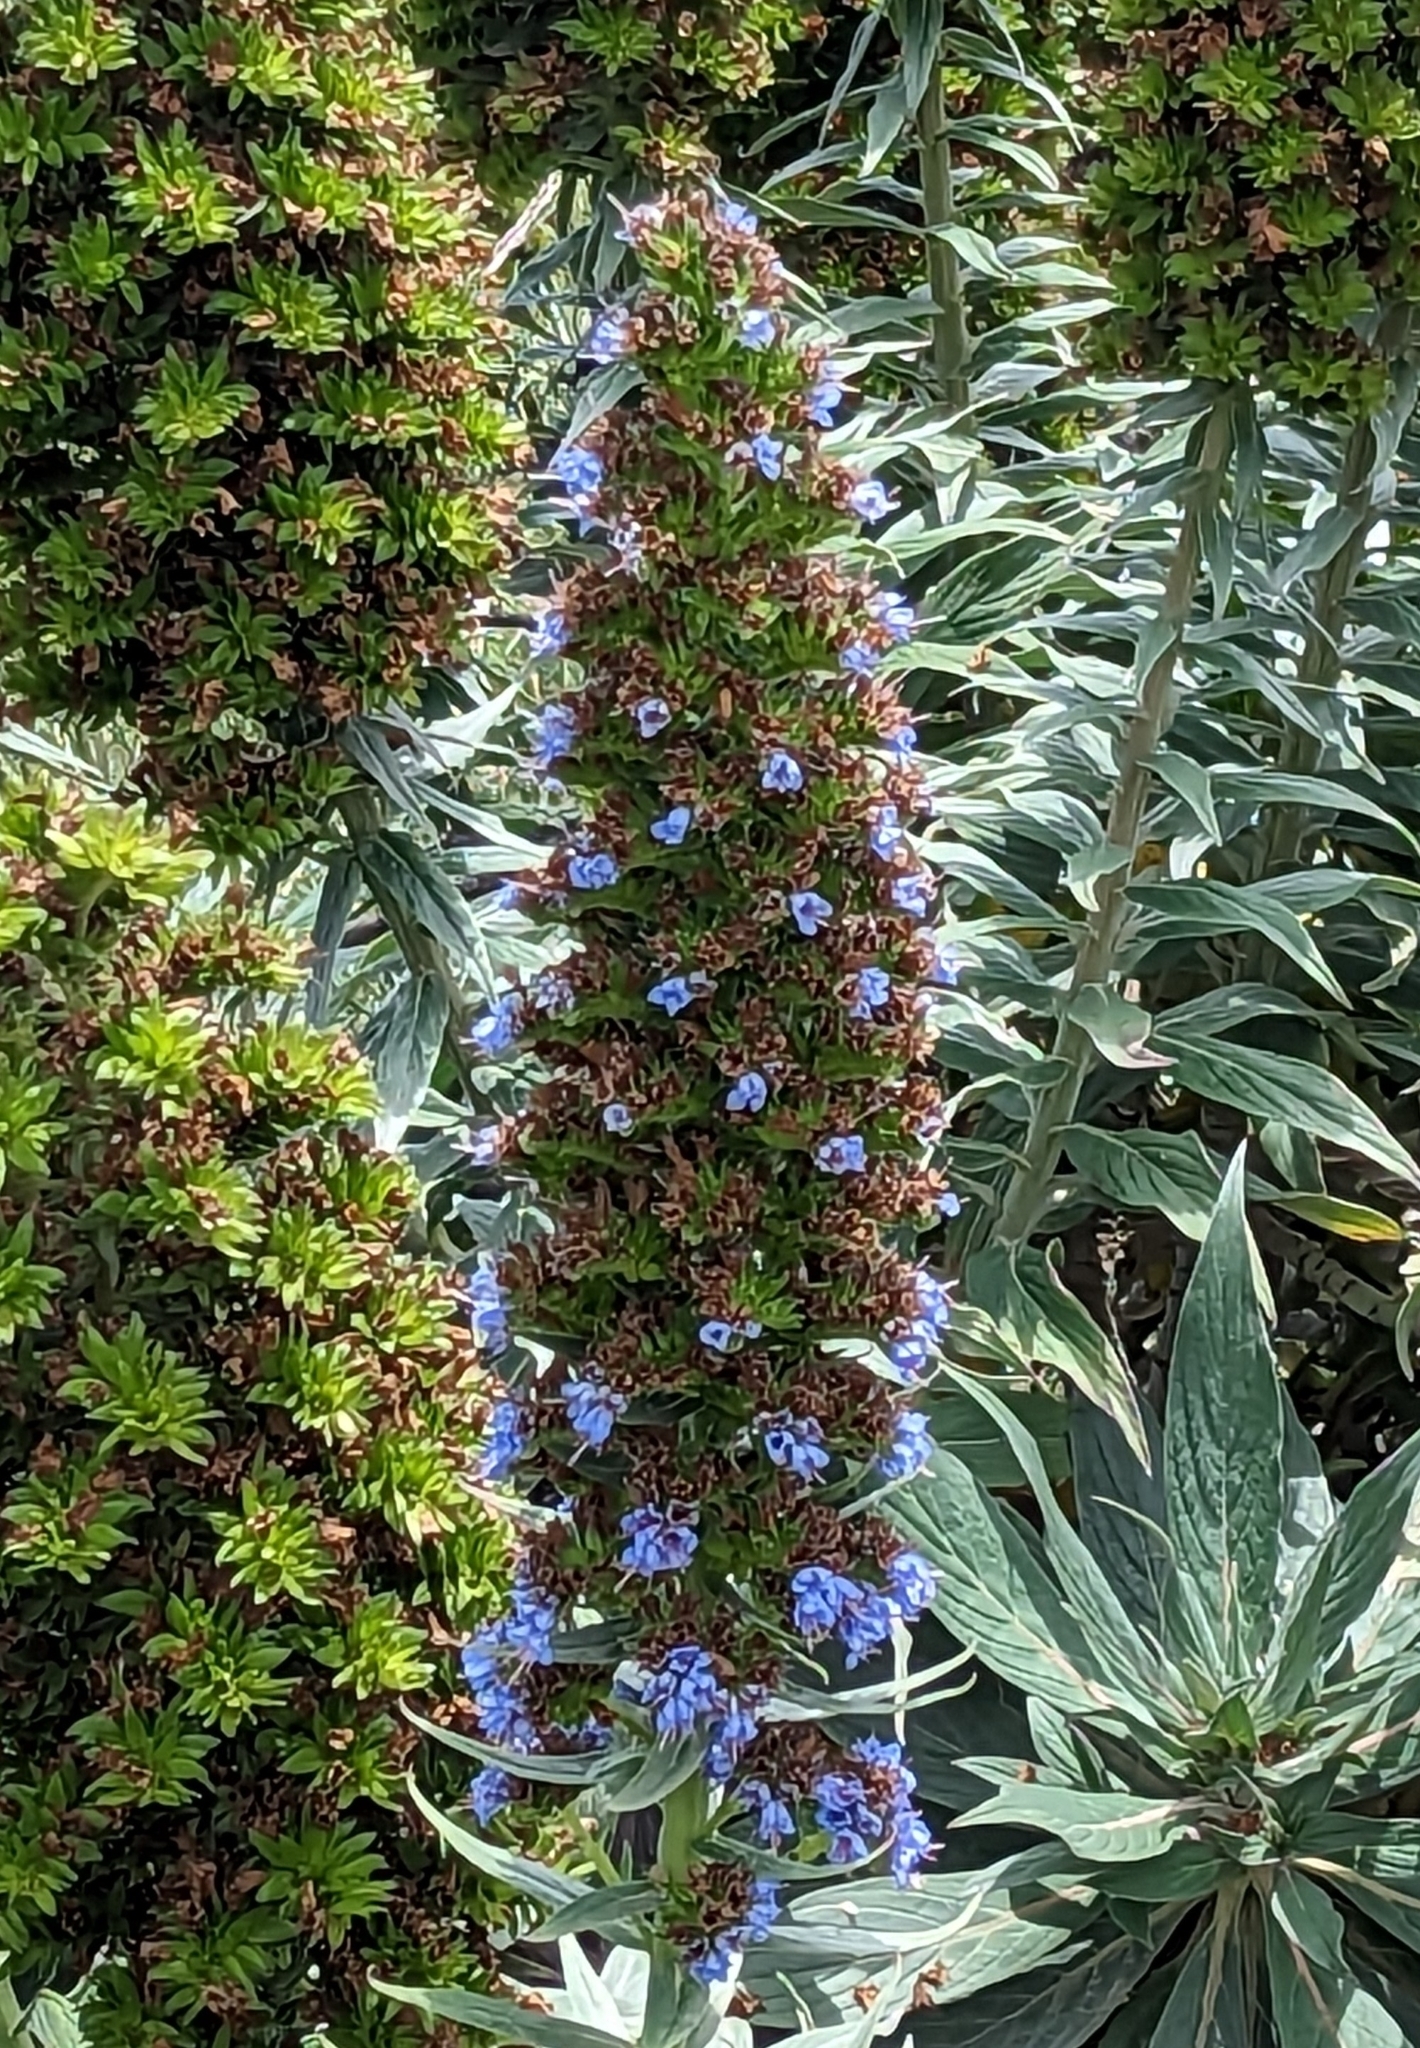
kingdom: Plantae
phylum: Tracheophyta
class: Magnoliopsida
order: Boraginales
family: Boraginaceae
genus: Echium
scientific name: Echium candicans
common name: Pride of madeira
